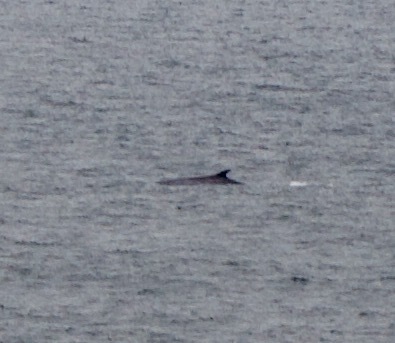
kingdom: Animalia
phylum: Chordata
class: Mammalia
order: Cetacea
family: Balaenopteridae
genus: Balaenoptera
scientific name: Balaenoptera physalus
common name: Fin whale
